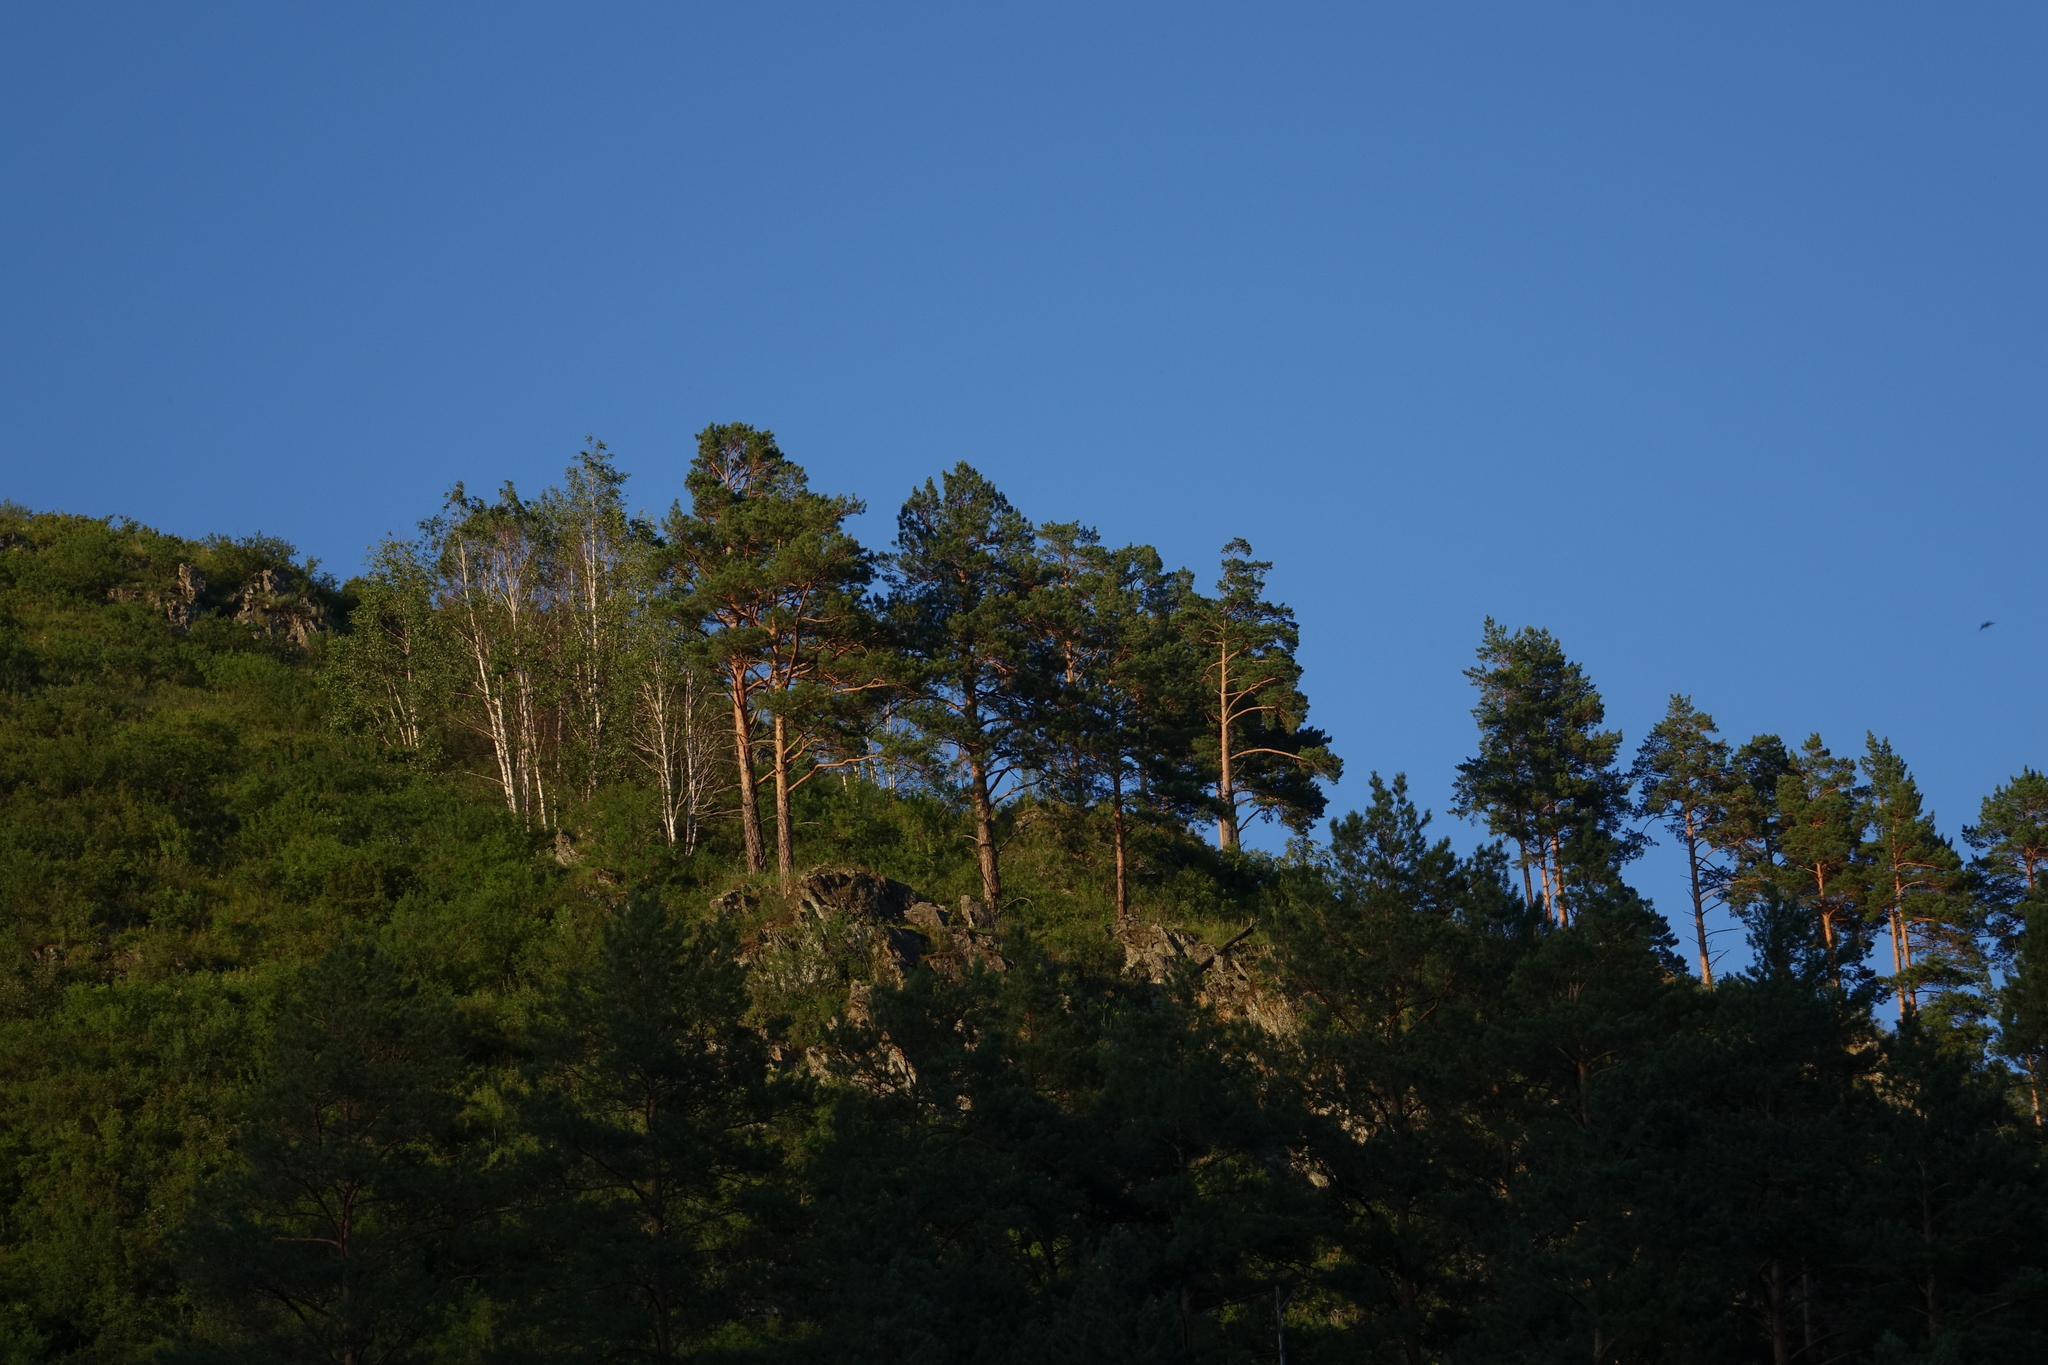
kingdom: Plantae
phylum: Tracheophyta
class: Pinopsida
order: Pinales
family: Pinaceae
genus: Pinus
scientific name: Pinus sylvestris
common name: Scots pine
